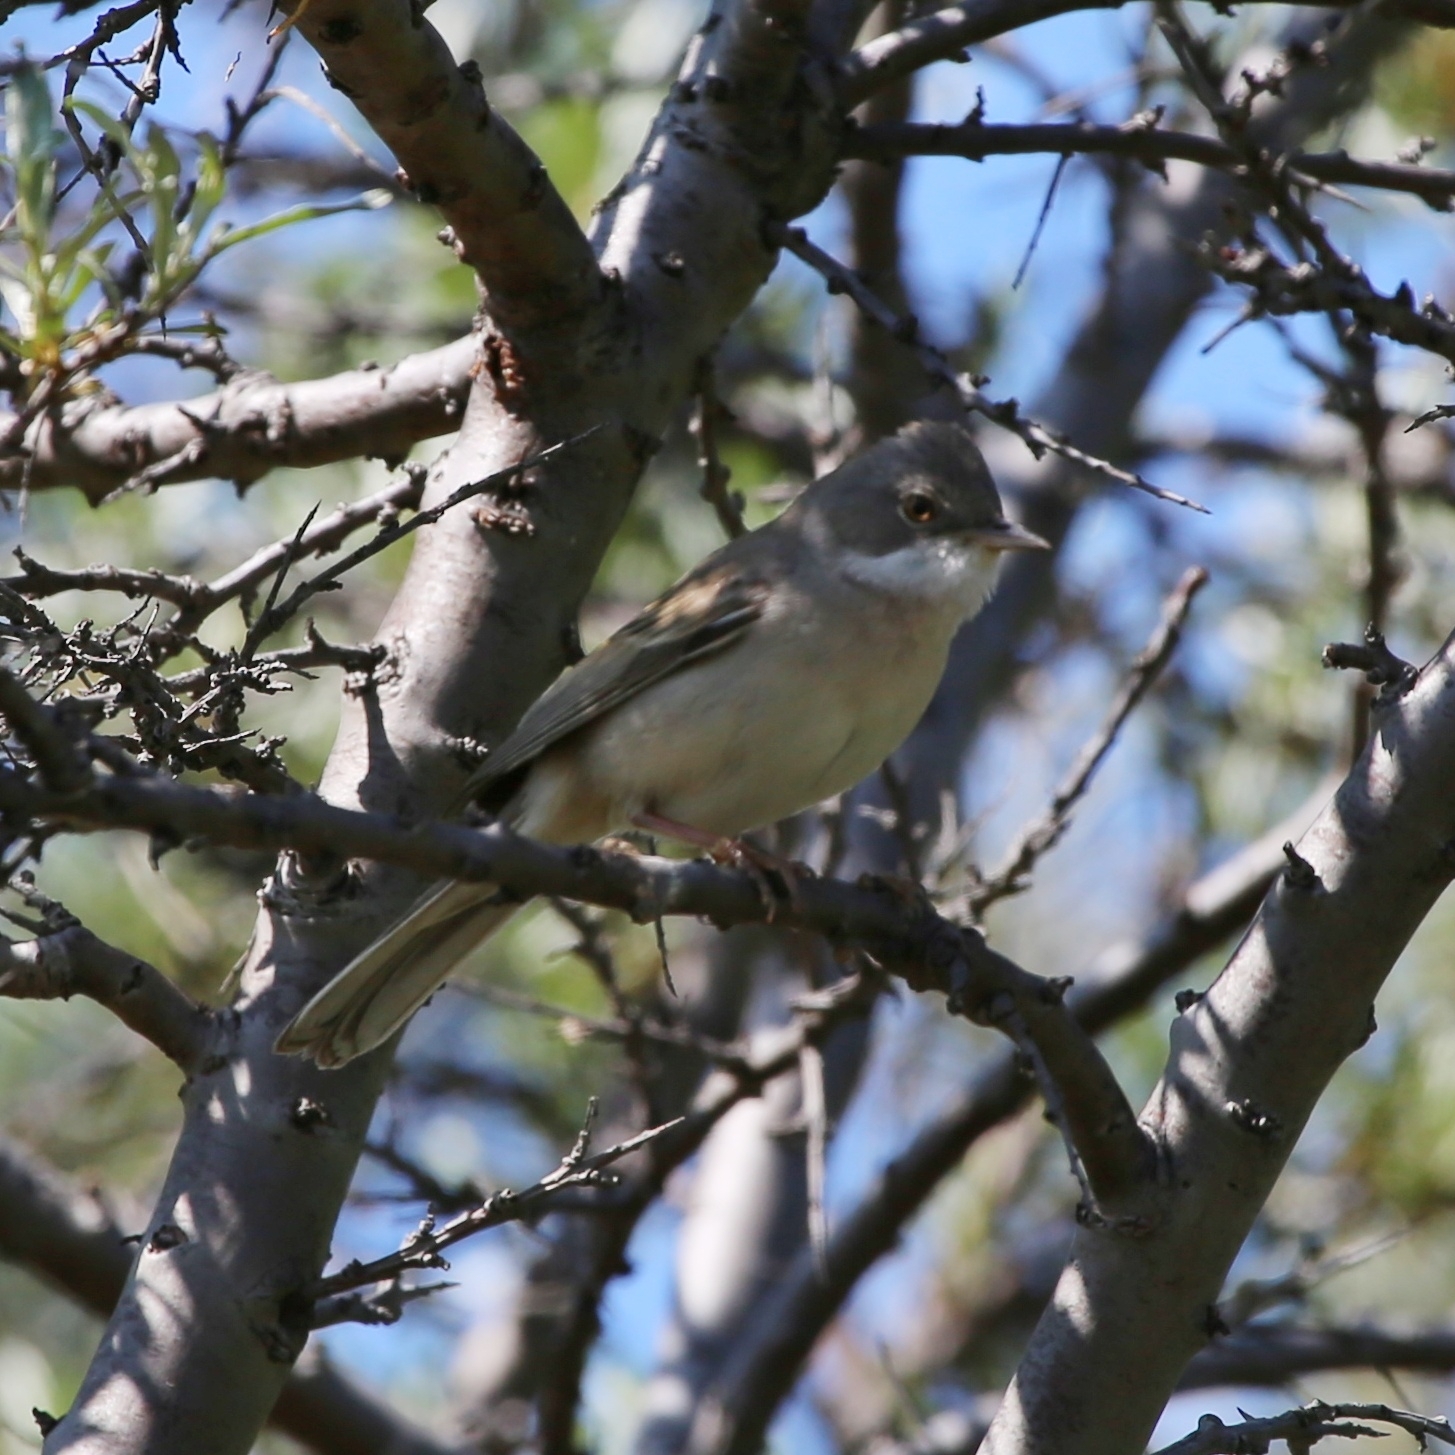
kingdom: Animalia
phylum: Chordata
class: Aves
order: Passeriformes
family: Sylviidae
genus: Sylvia
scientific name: Sylvia communis
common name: Common whitethroat
